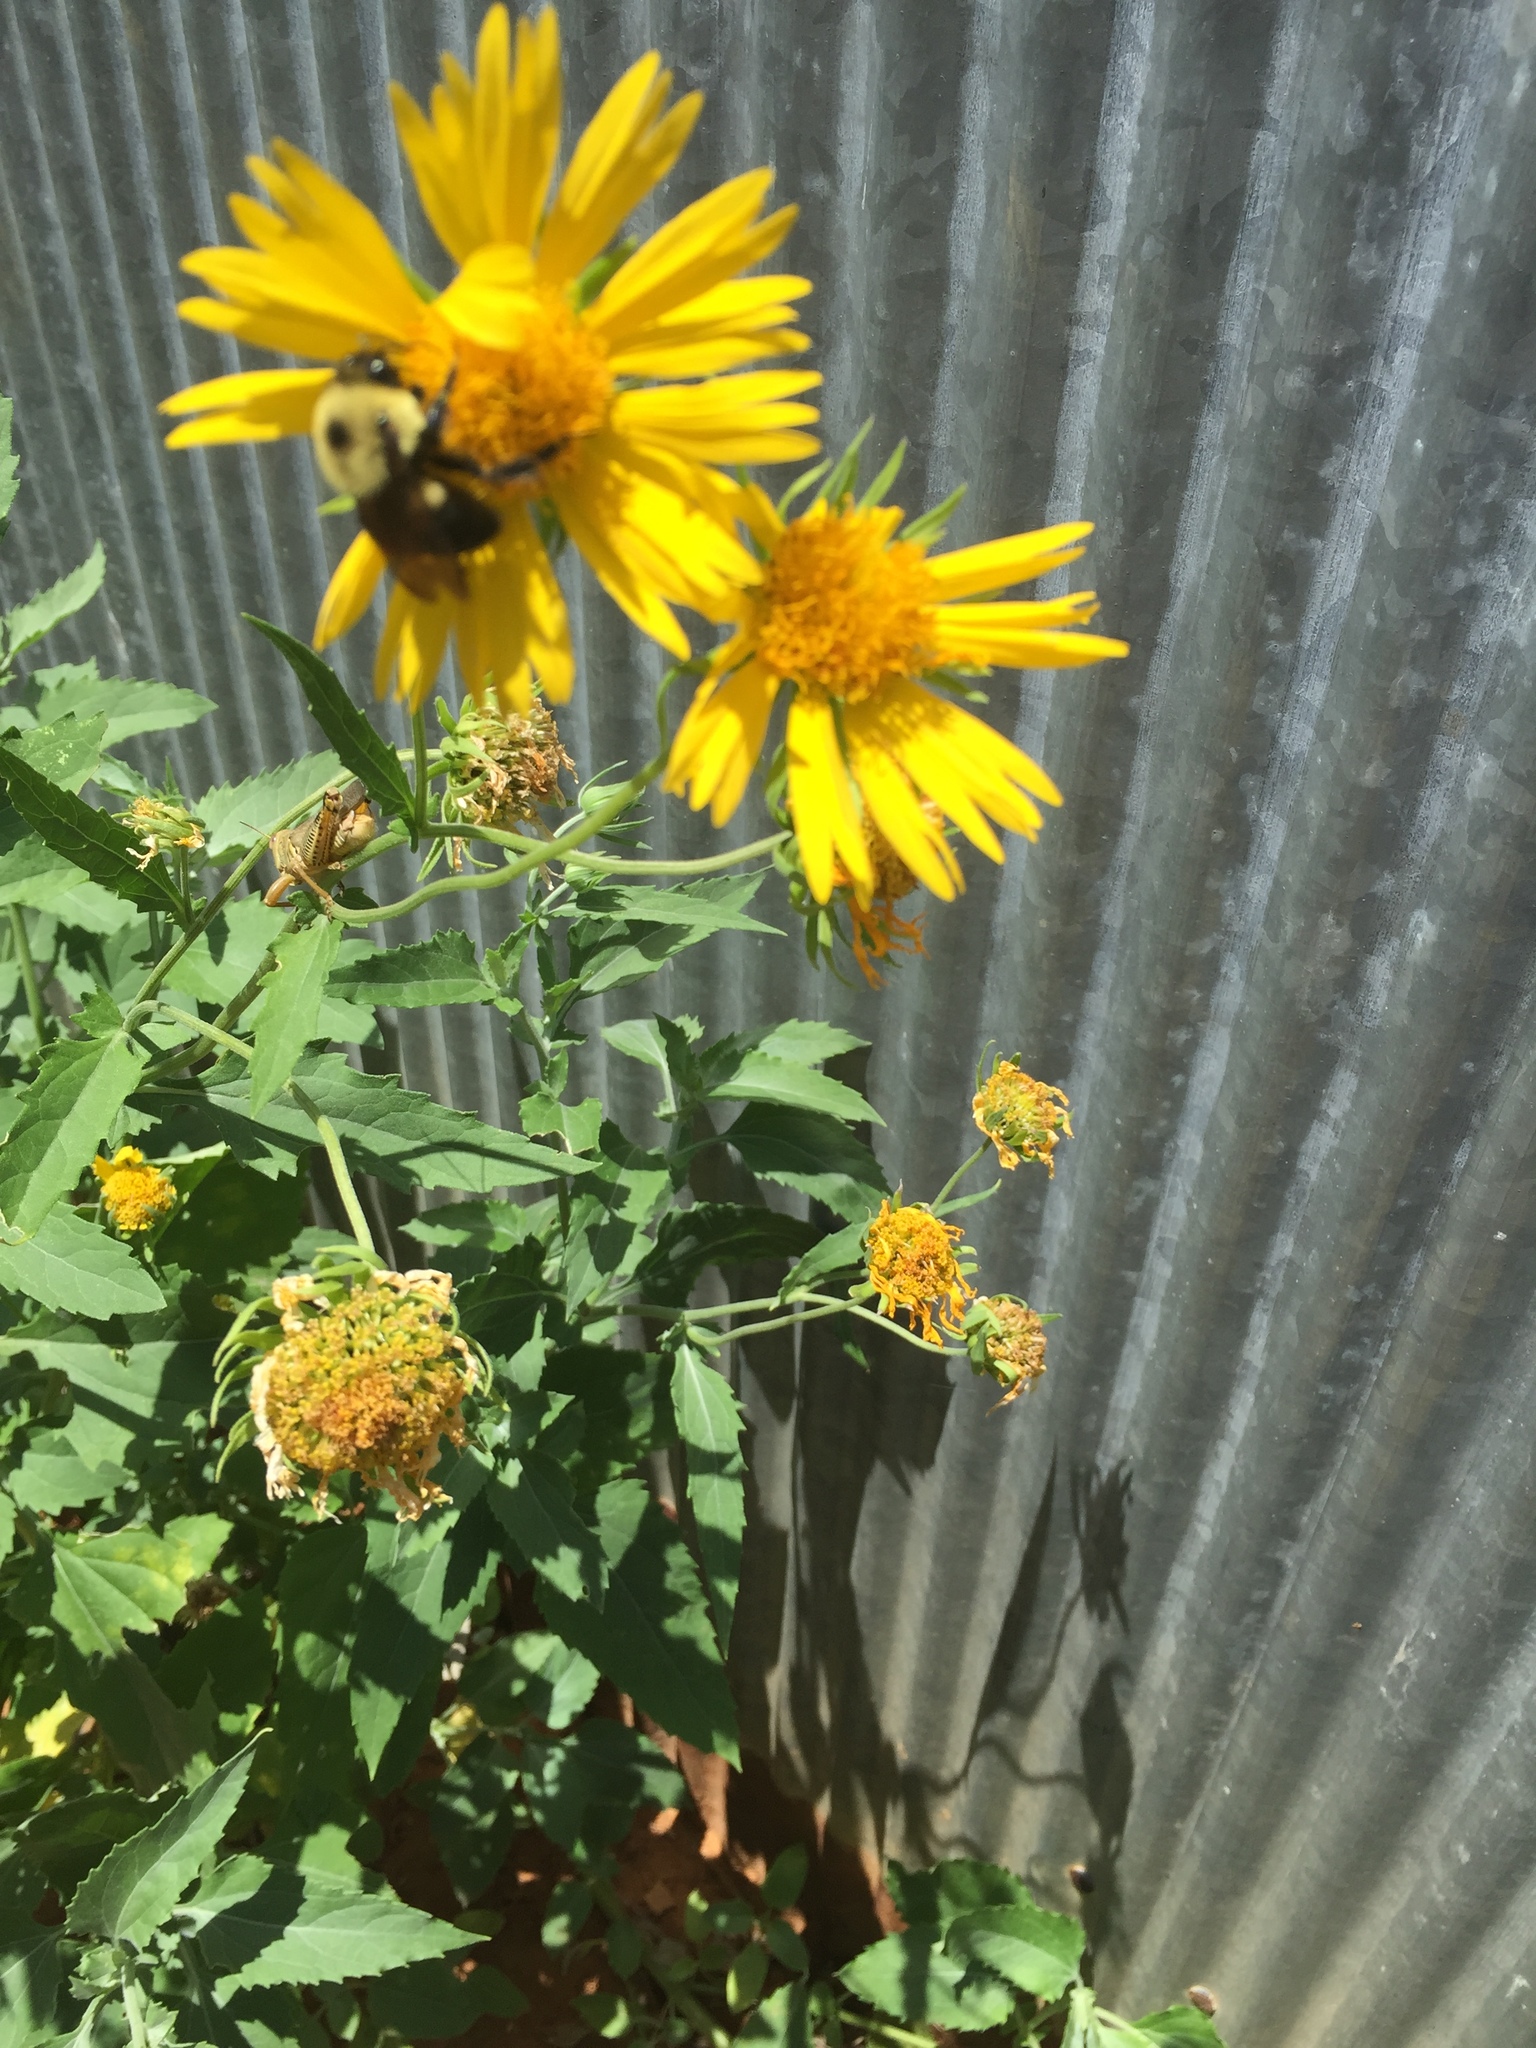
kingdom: Animalia
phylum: Arthropoda
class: Insecta
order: Hymenoptera
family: Apidae
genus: Bombus
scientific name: Bombus griseocollis
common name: Brown-belted bumble bee
